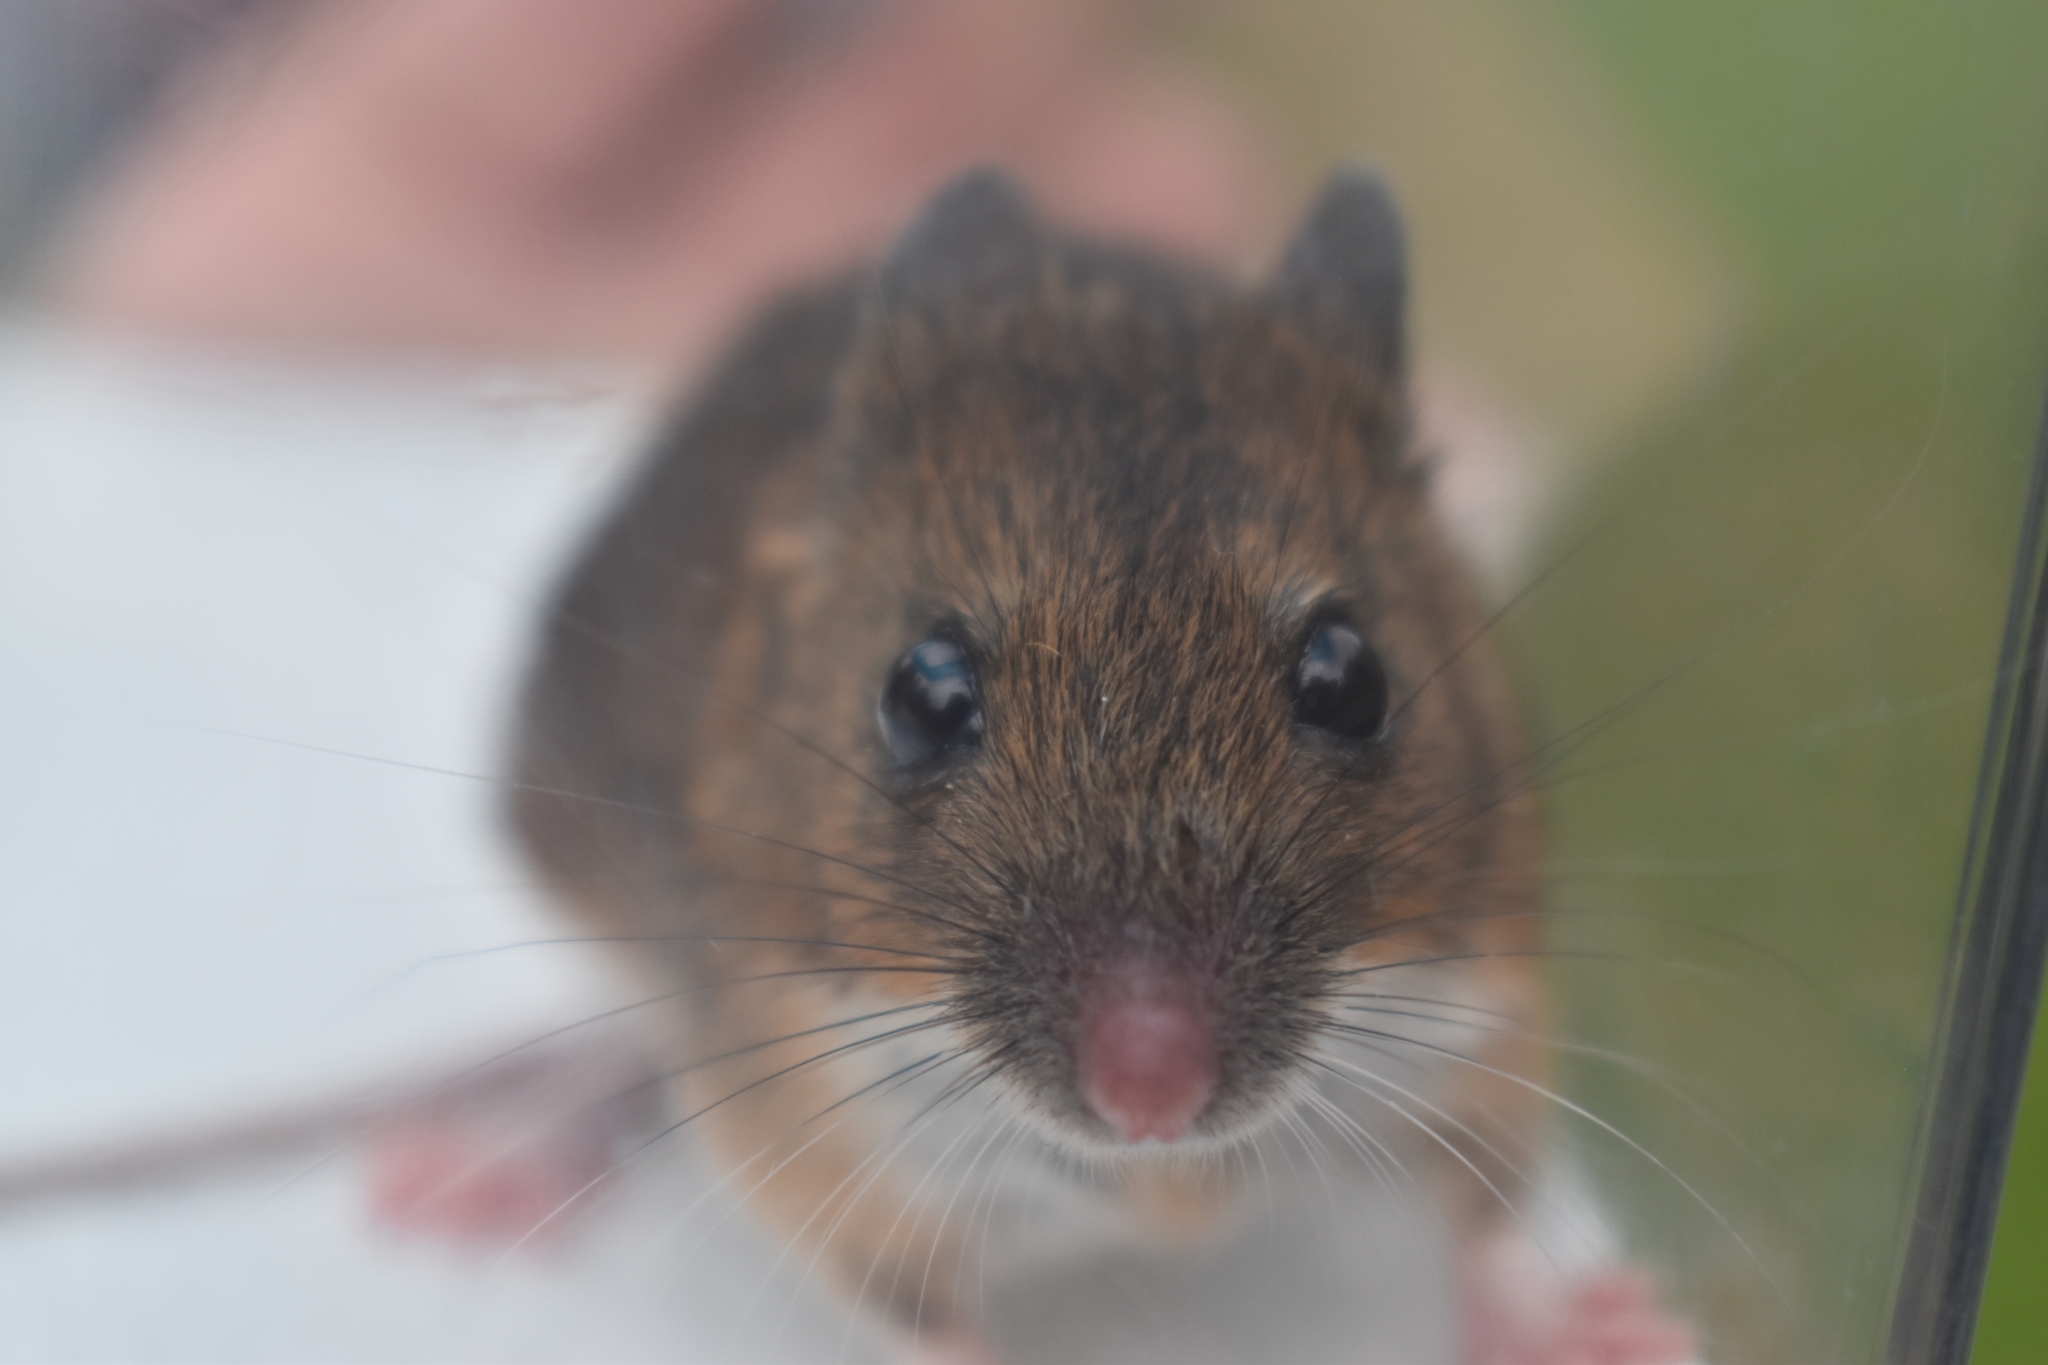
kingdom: Animalia
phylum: Chordata
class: Mammalia
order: Rodentia
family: Muridae
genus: Apodemus
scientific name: Apodemus sylvaticus
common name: Wood mouse
